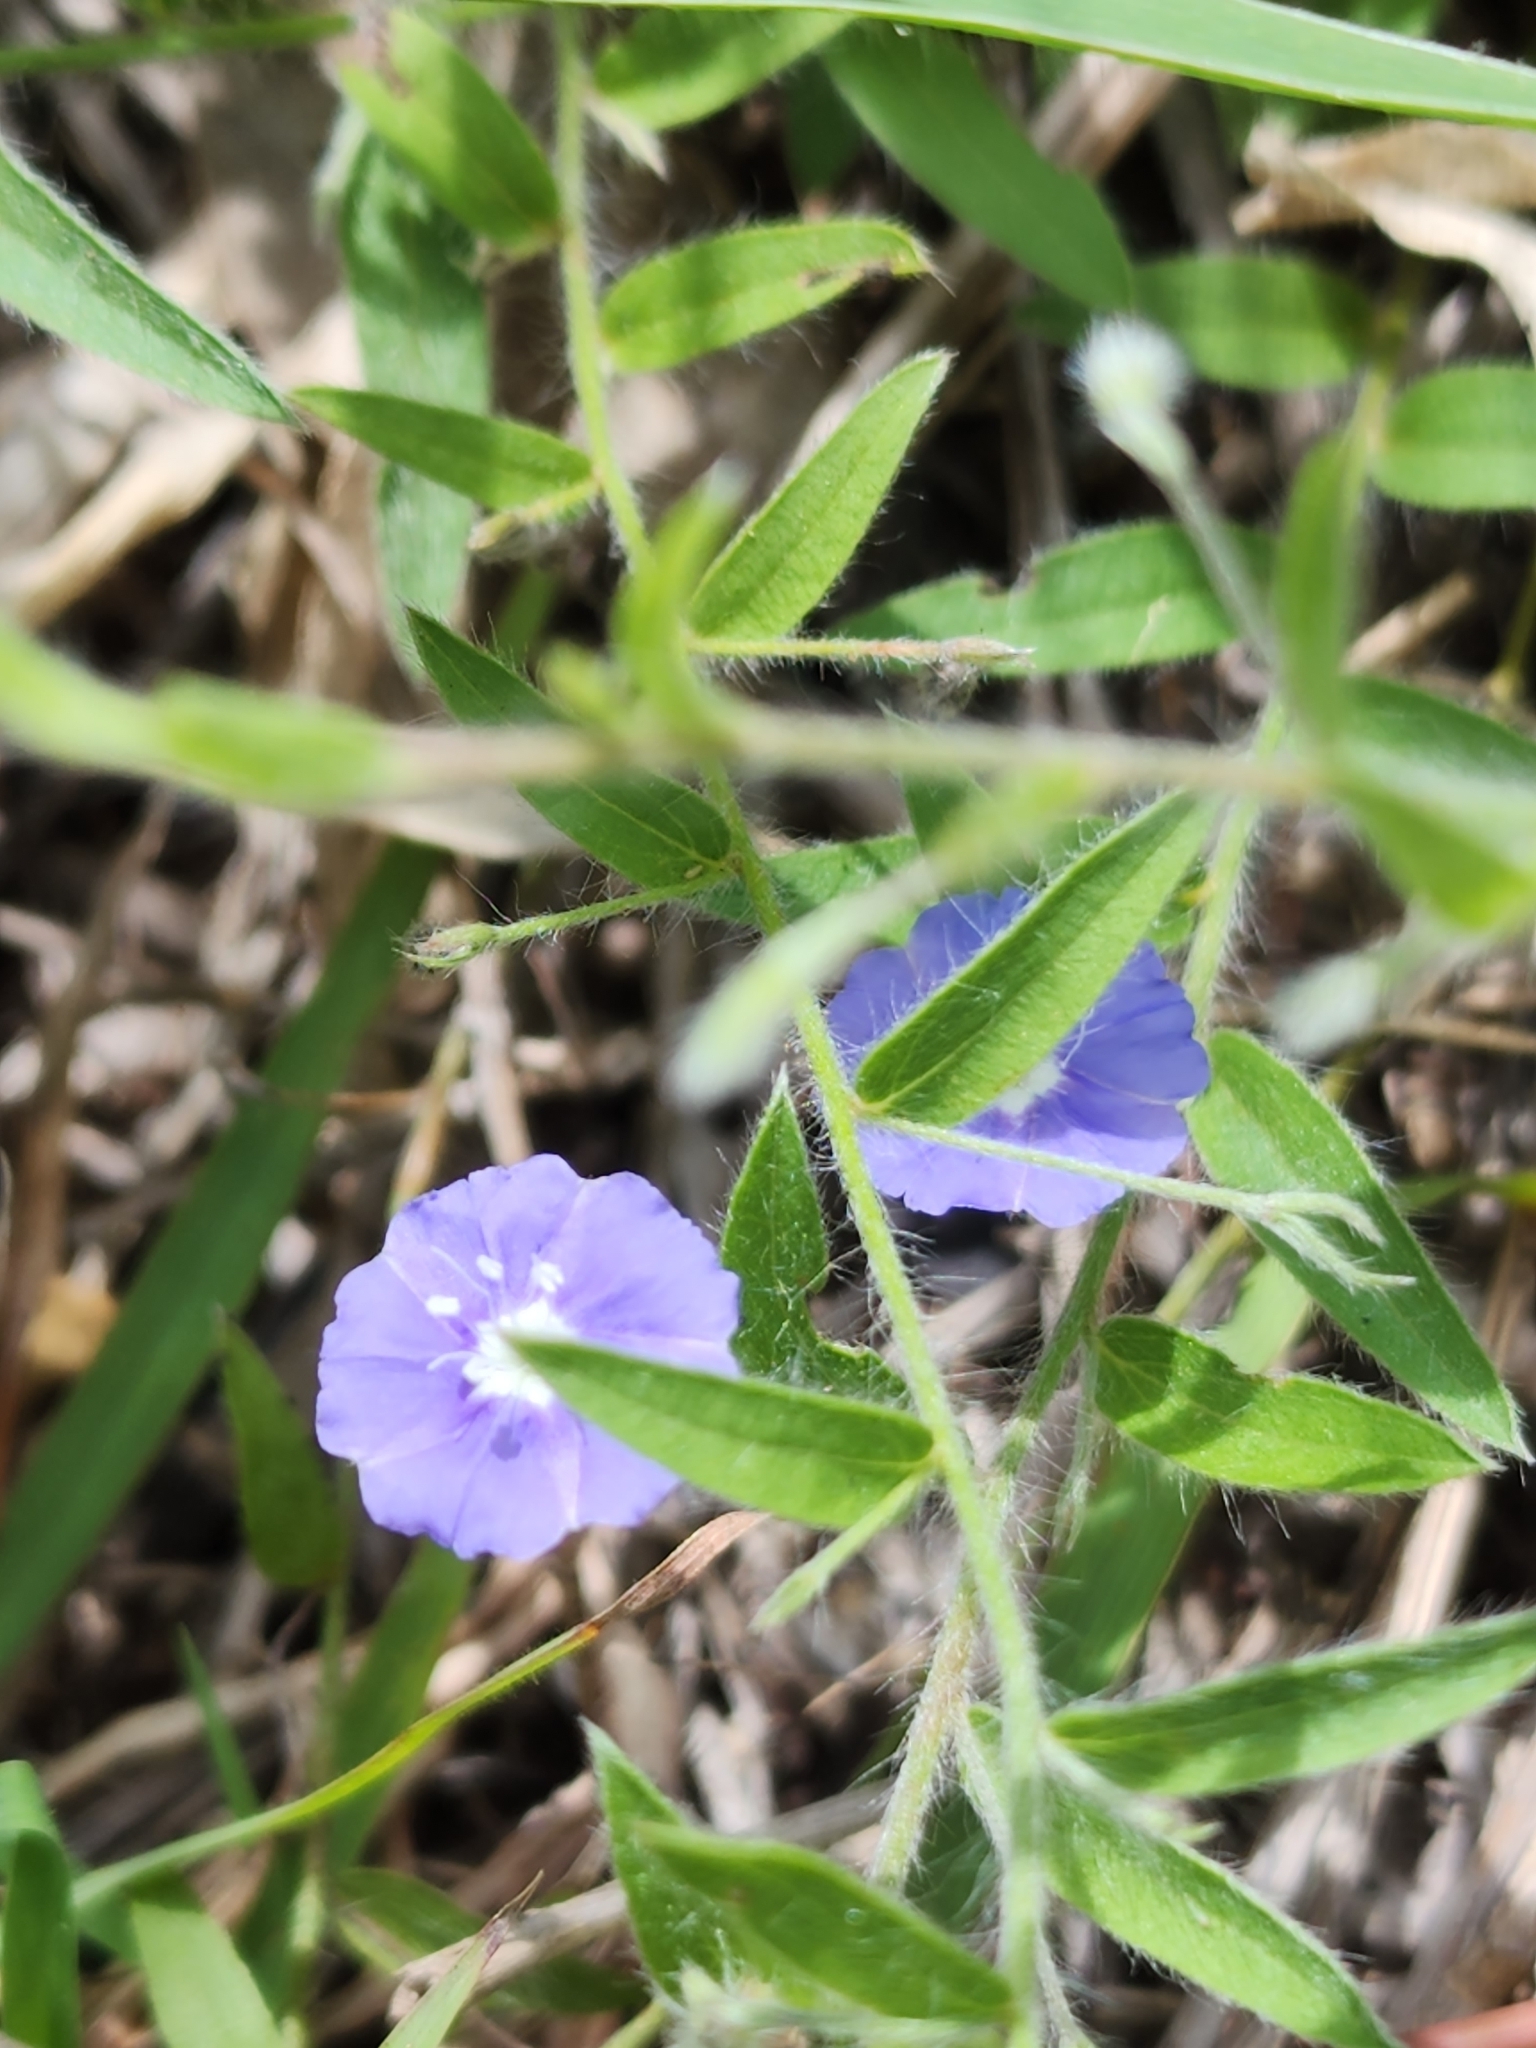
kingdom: Plantae
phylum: Tracheophyta
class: Magnoliopsida
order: Solanales
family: Convolvulaceae
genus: Evolvulus
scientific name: Evolvulus alsinoides
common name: Slender dwarf morning-glory
